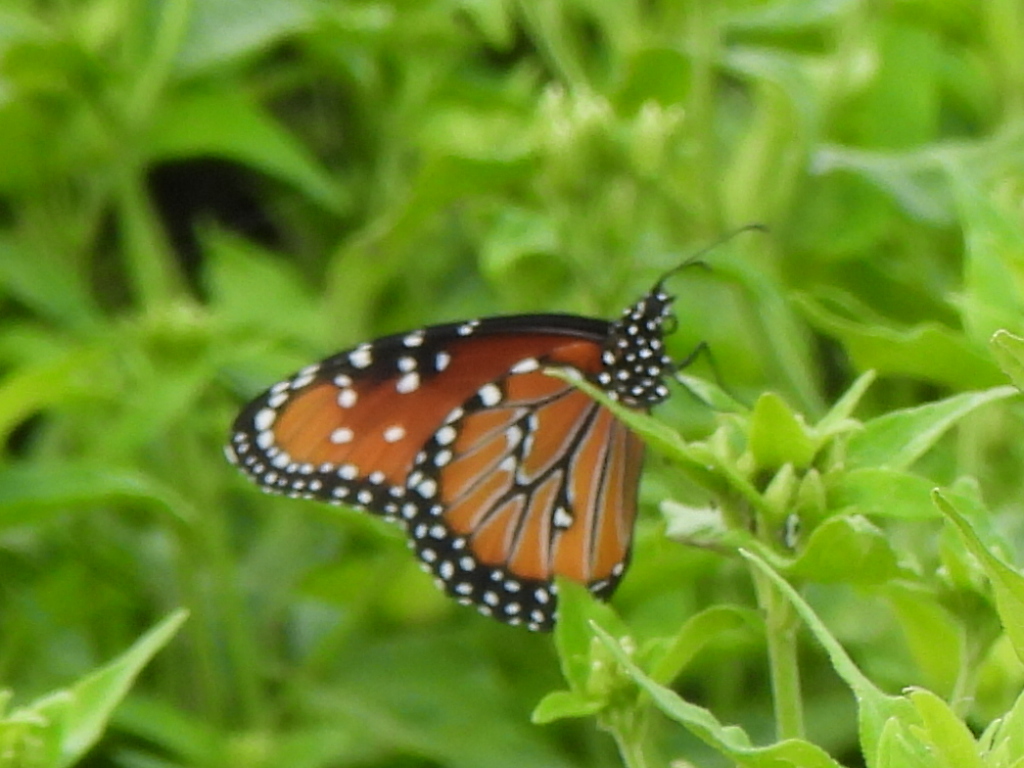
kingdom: Animalia
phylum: Arthropoda
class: Insecta
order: Lepidoptera
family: Nymphalidae
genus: Danaus
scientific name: Danaus gilippus
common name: Queen
